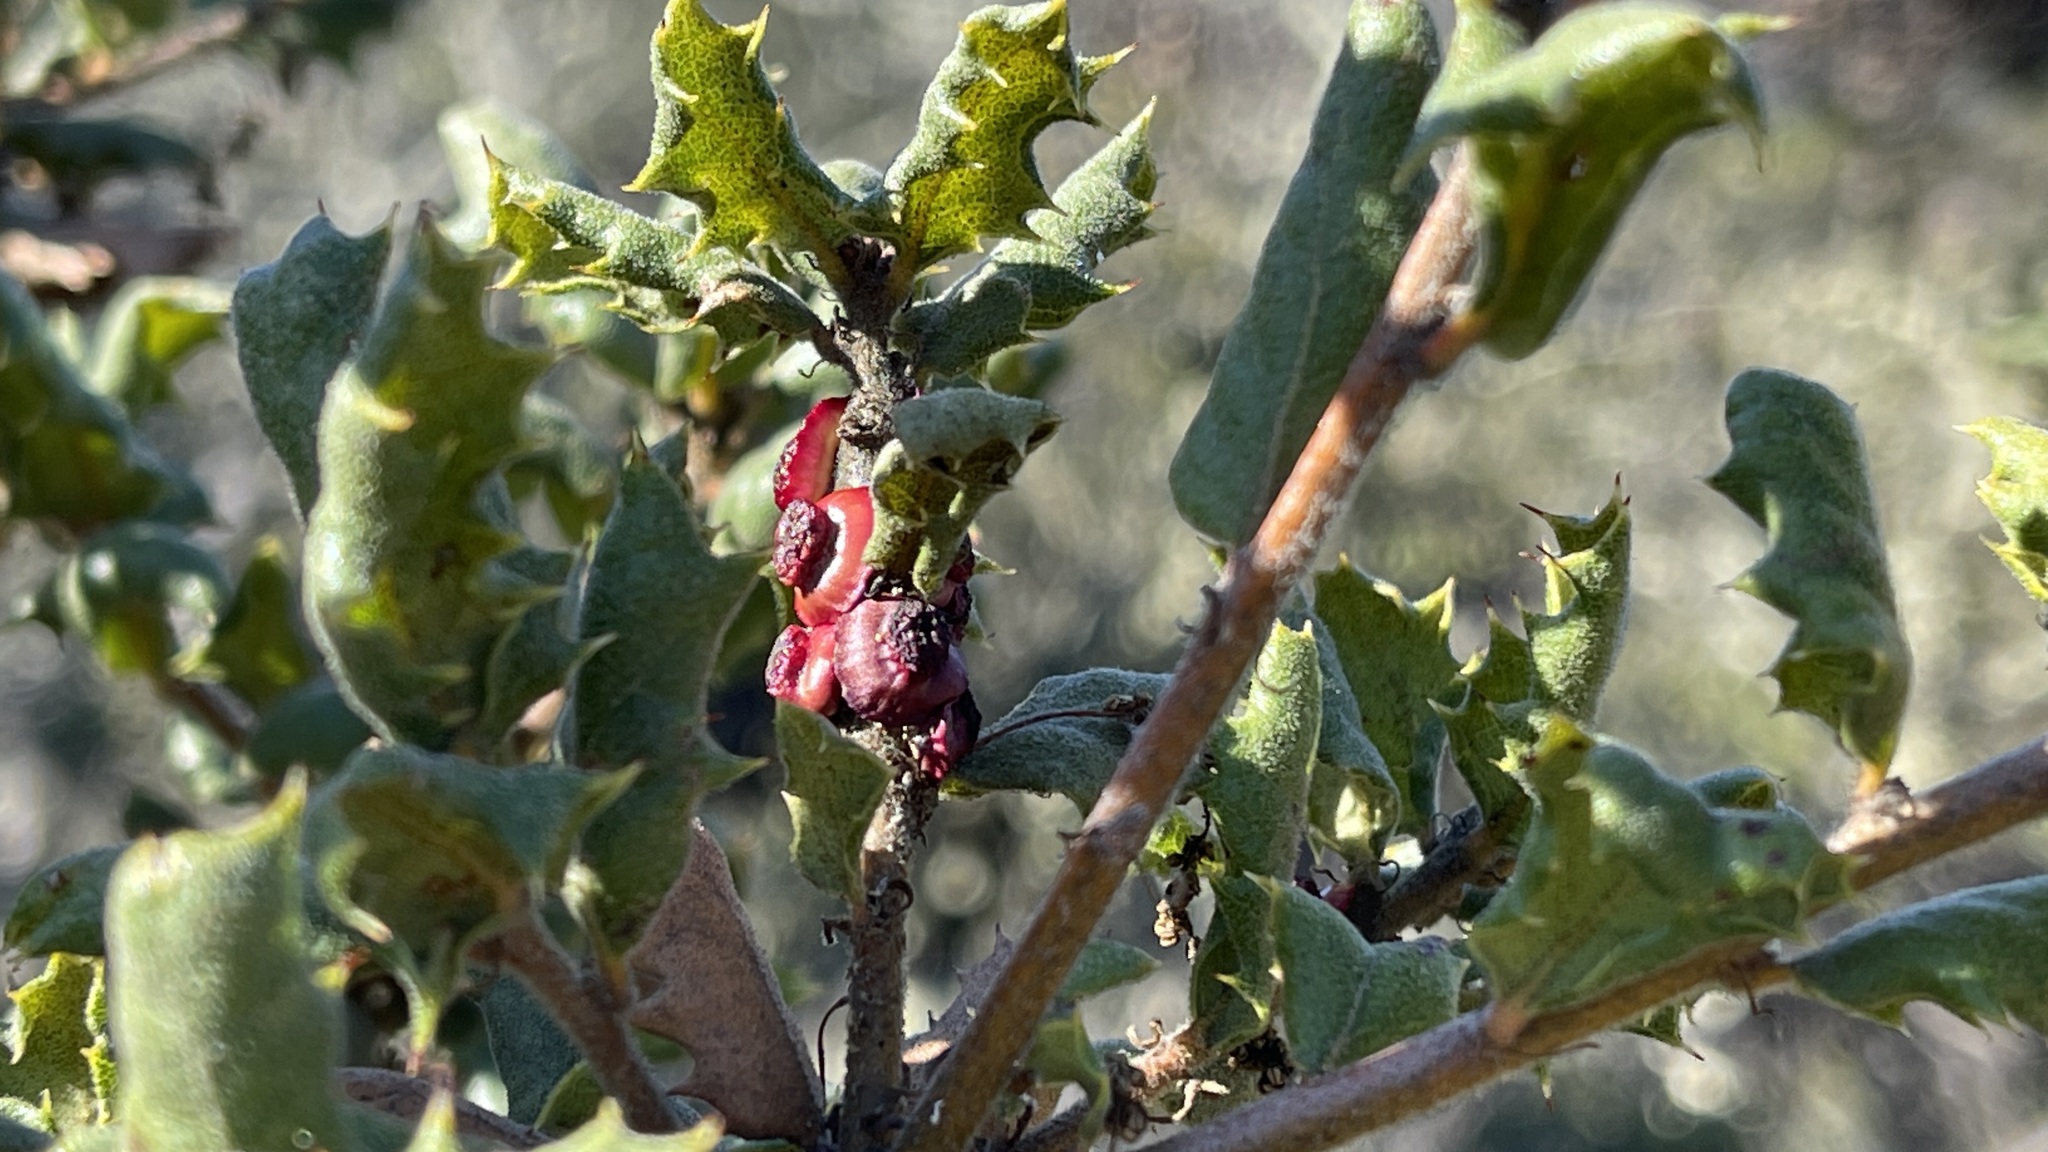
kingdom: Animalia
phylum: Arthropoda
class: Insecta
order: Hymenoptera
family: Cynipidae
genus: Disholcaspis
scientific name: Disholcaspis prehensa
